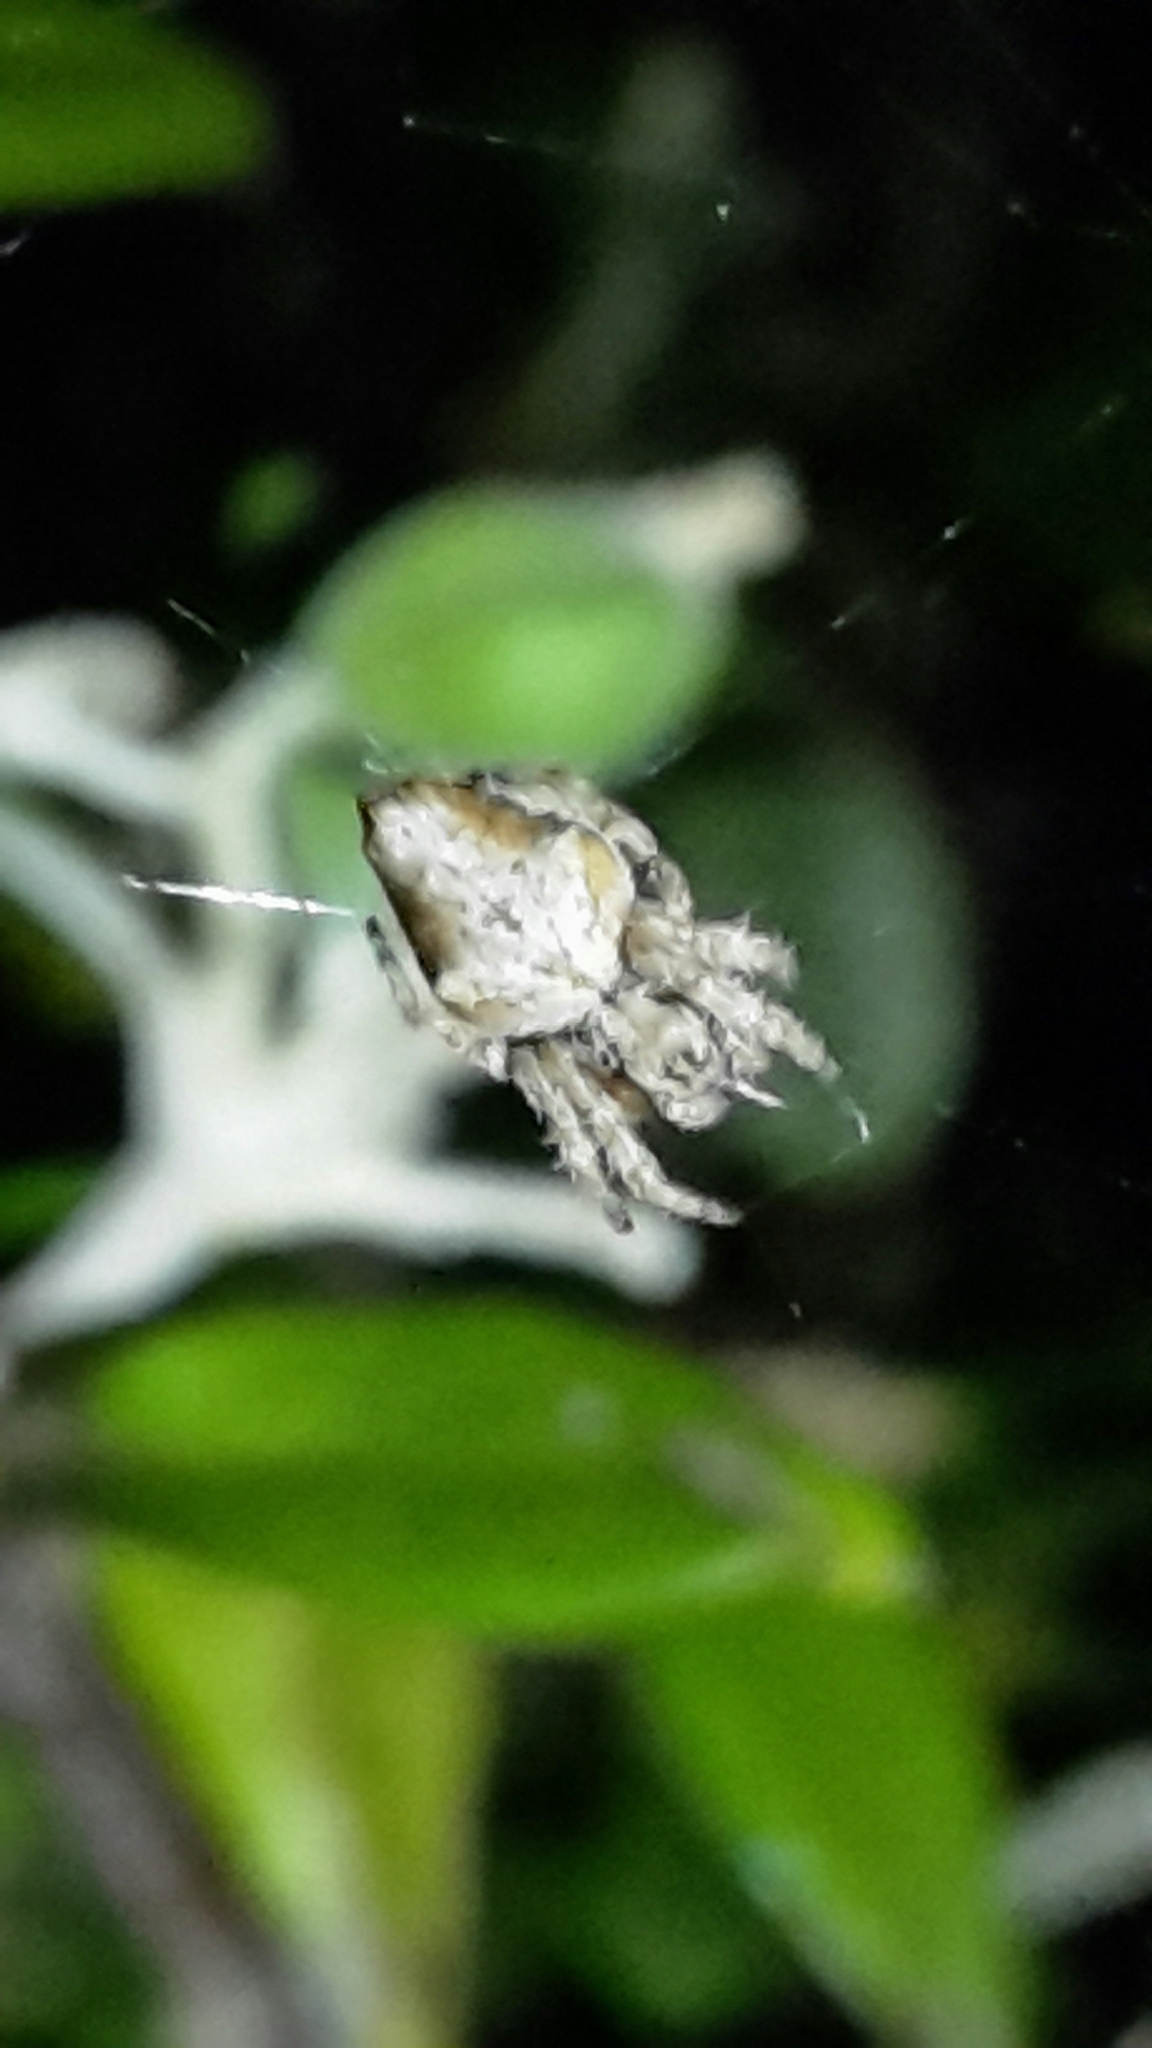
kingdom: Animalia
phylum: Arthropoda
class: Arachnida
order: Araneae
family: Araneidae
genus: Eriophora
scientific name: Eriophora pustulosa
